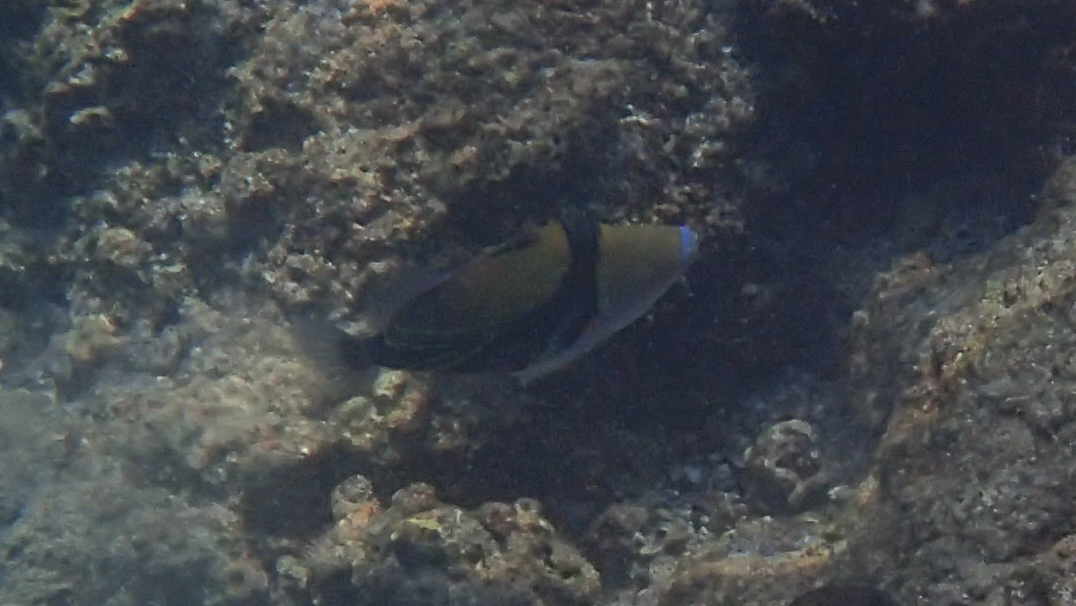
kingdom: Animalia
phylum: Chordata
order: Tetraodontiformes
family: Balistidae
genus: Rhinecanthus
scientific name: Rhinecanthus rectangulus
